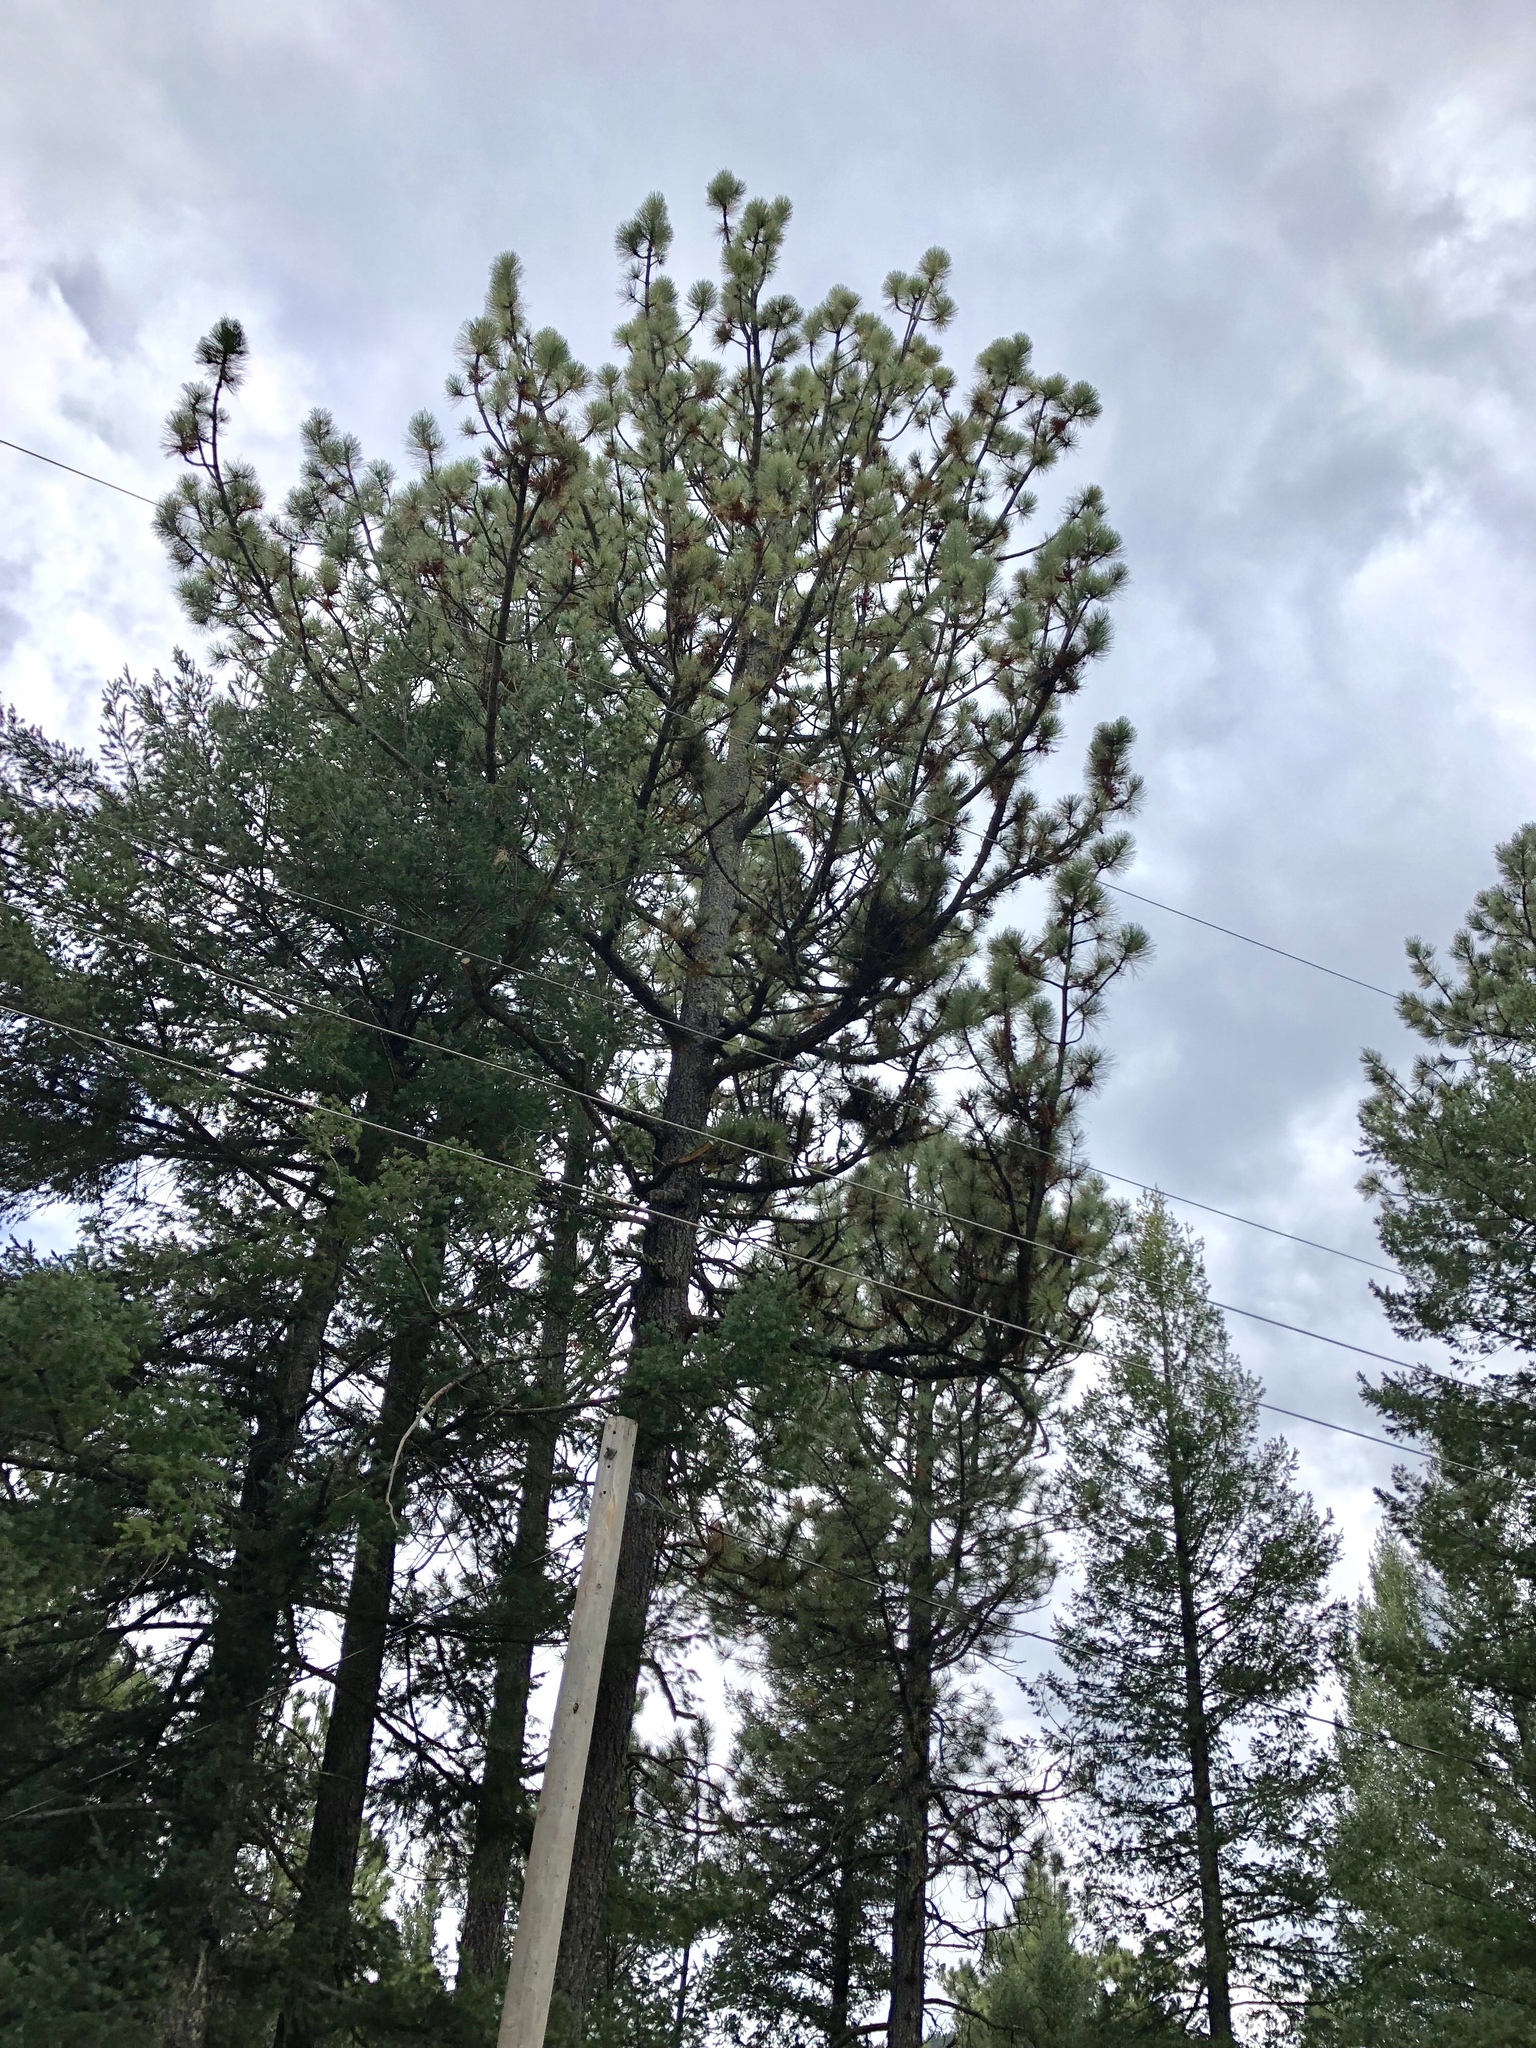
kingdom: Plantae
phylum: Tracheophyta
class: Pinopsida
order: Pinales
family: Pinaceae
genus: Pinus
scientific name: Pinus strobiformis
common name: Southwestern white pine
